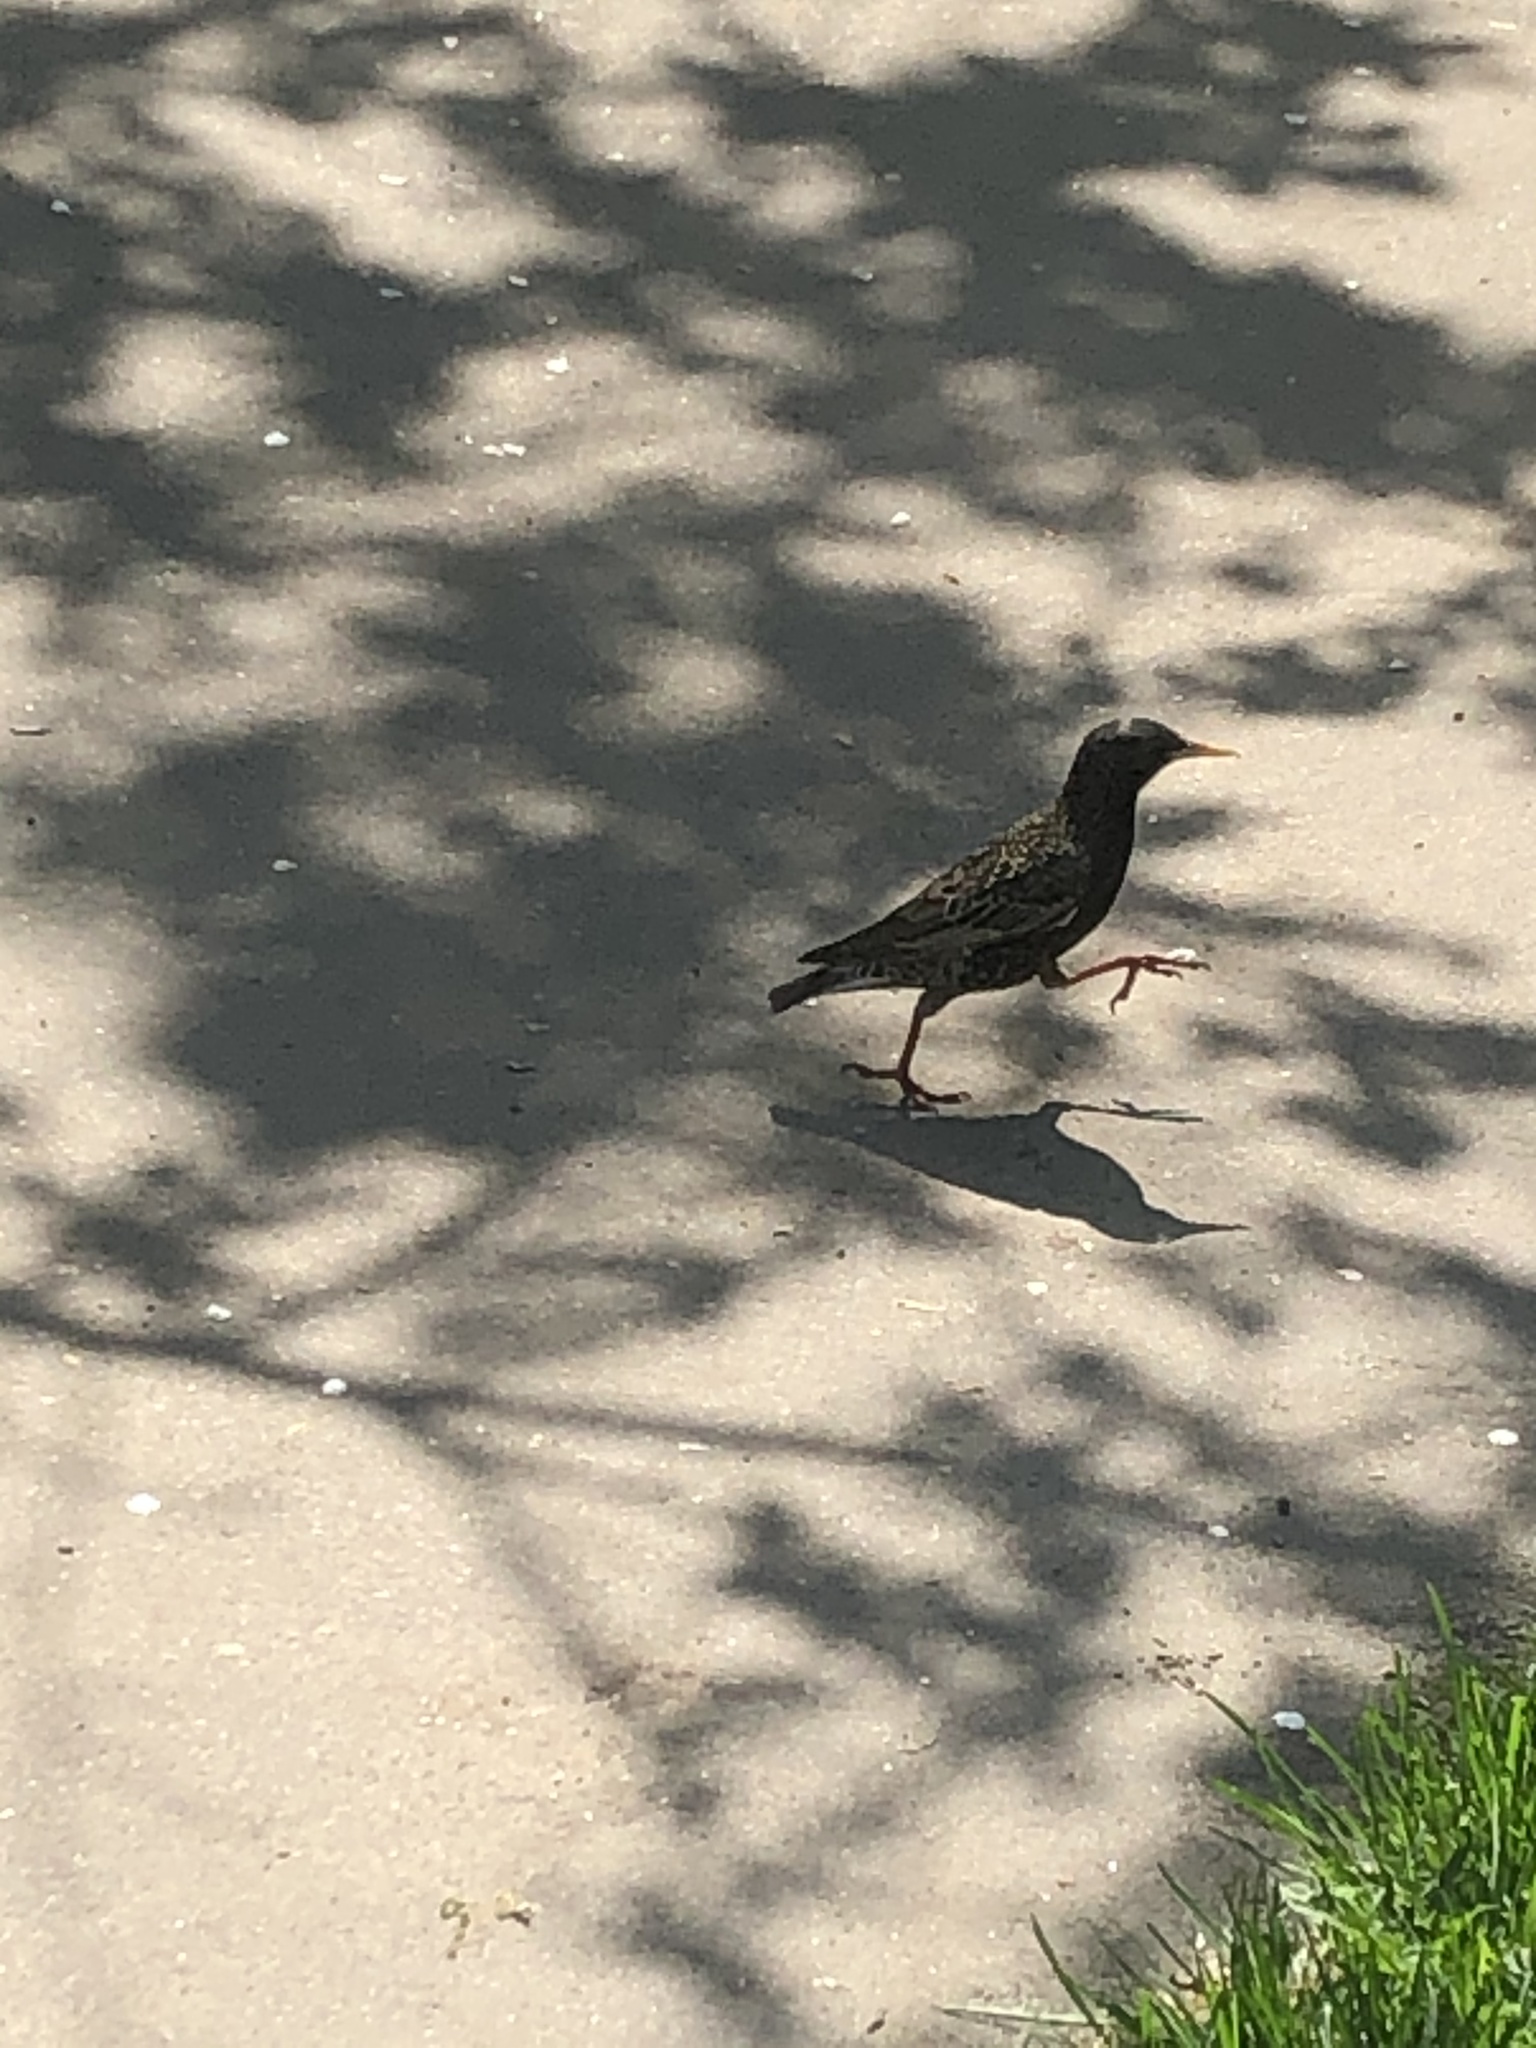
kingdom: Animalia
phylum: Chordata
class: Aves
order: Passeriformes
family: Sturnidae
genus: Sturnus
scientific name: Sturnus vulgaris
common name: Common starling
